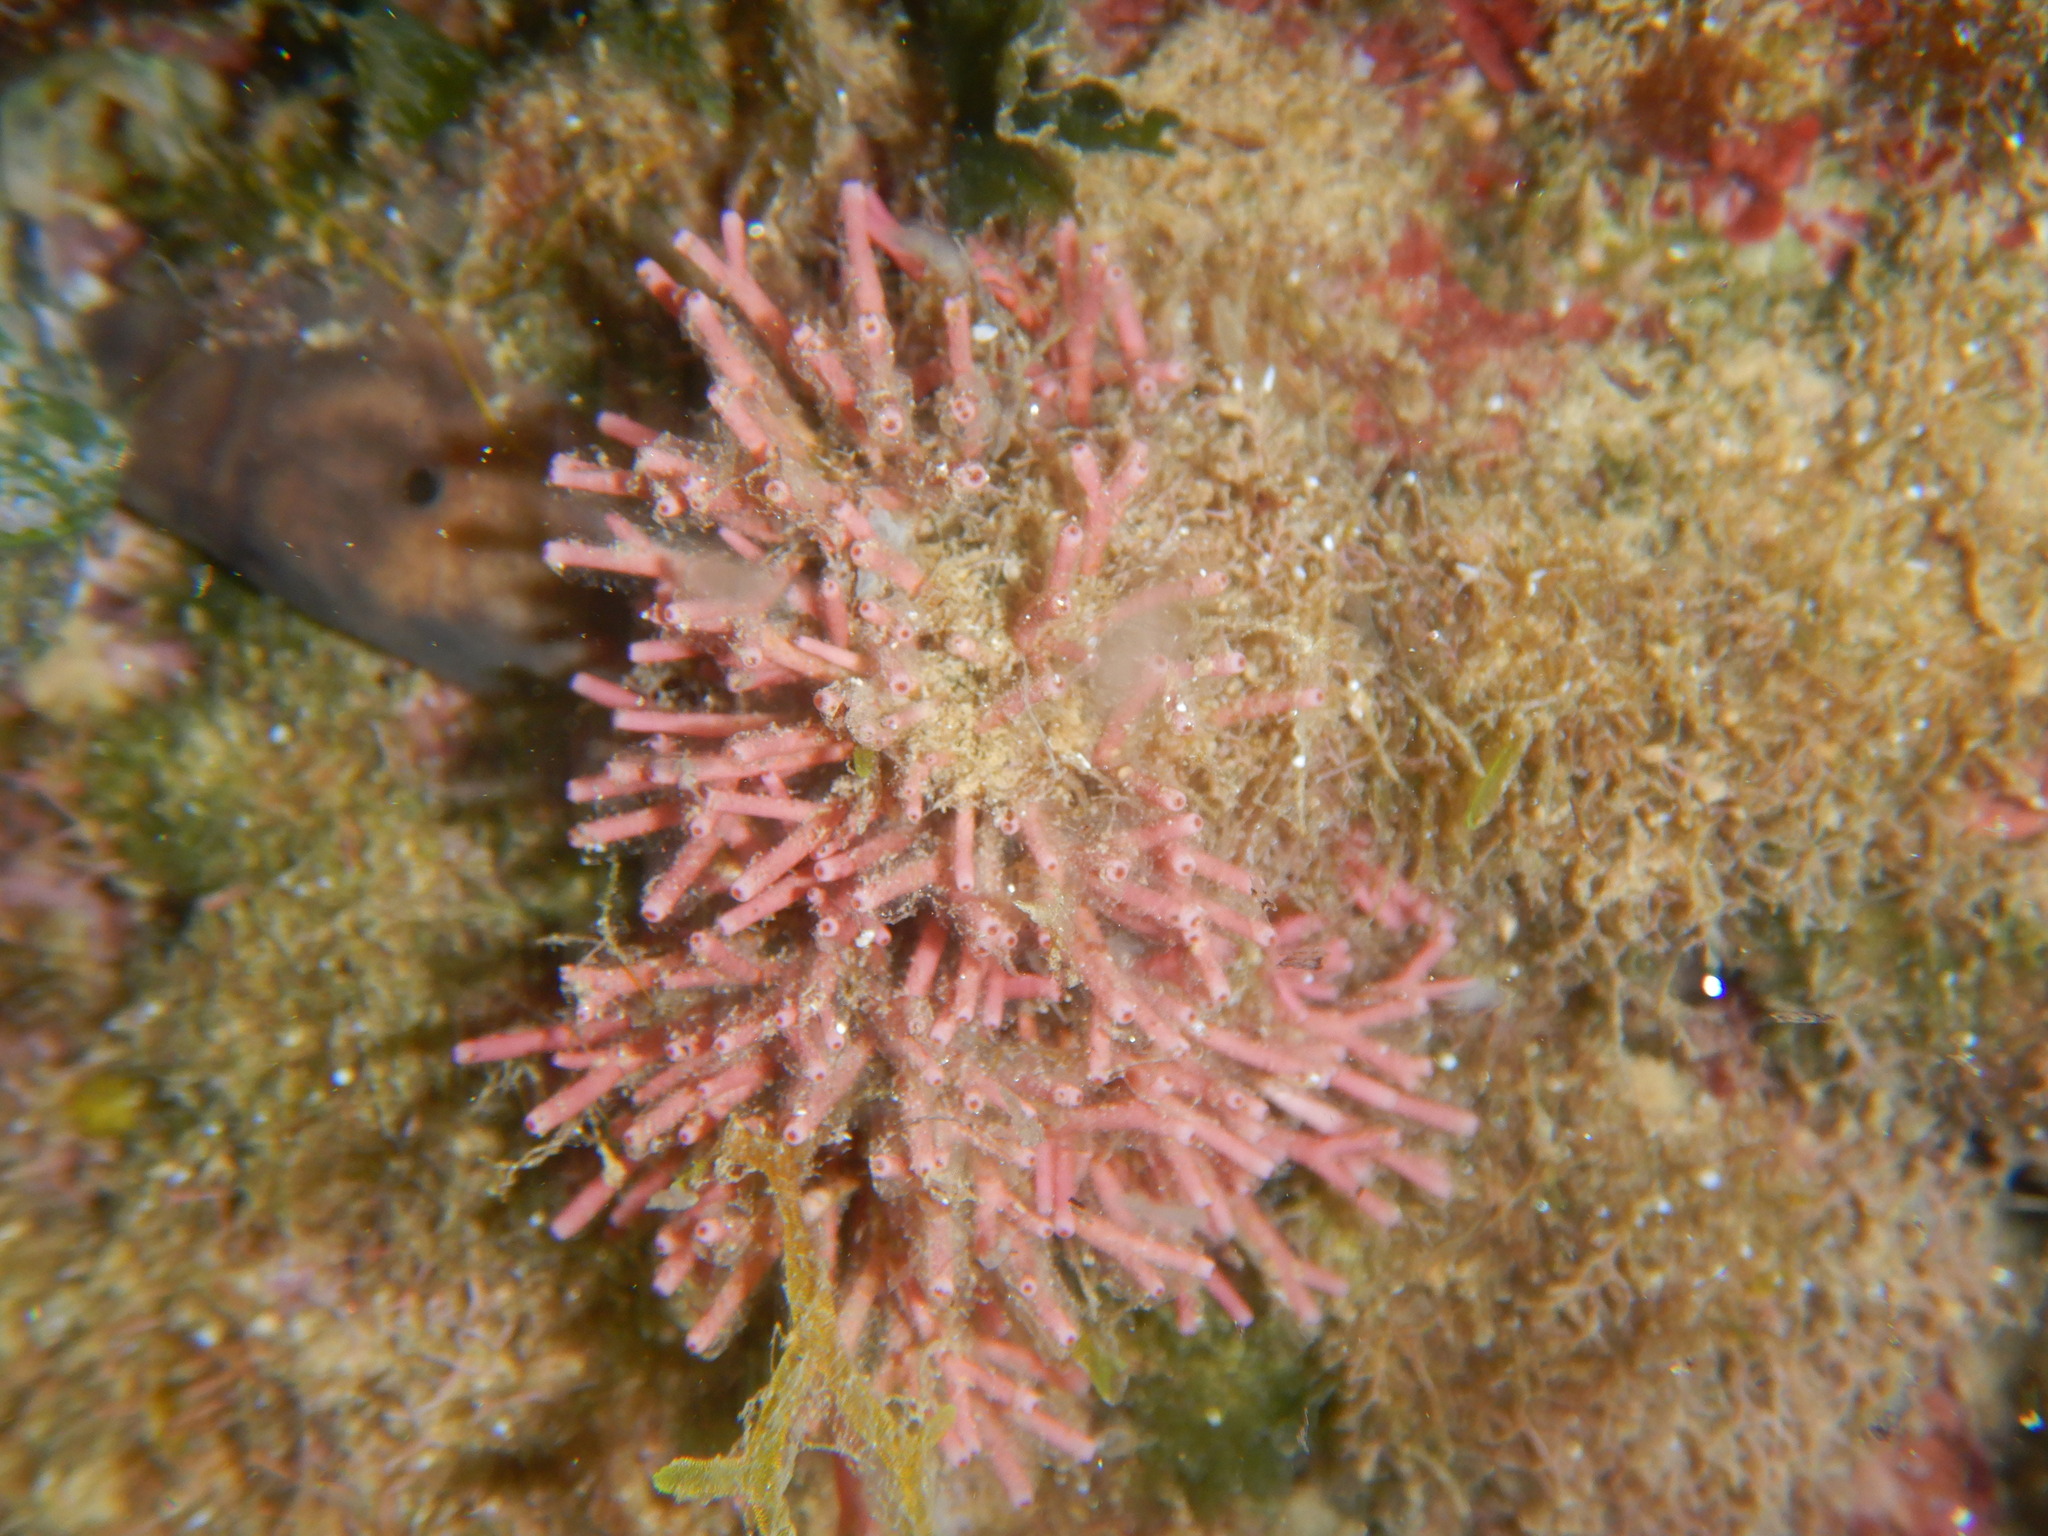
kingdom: Plantae
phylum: Rhodophyta
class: Florideophyceae
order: Nemaliales
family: Galaxauraceae
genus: Tricleocarpa
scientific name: Tricleocarpa fragilis
